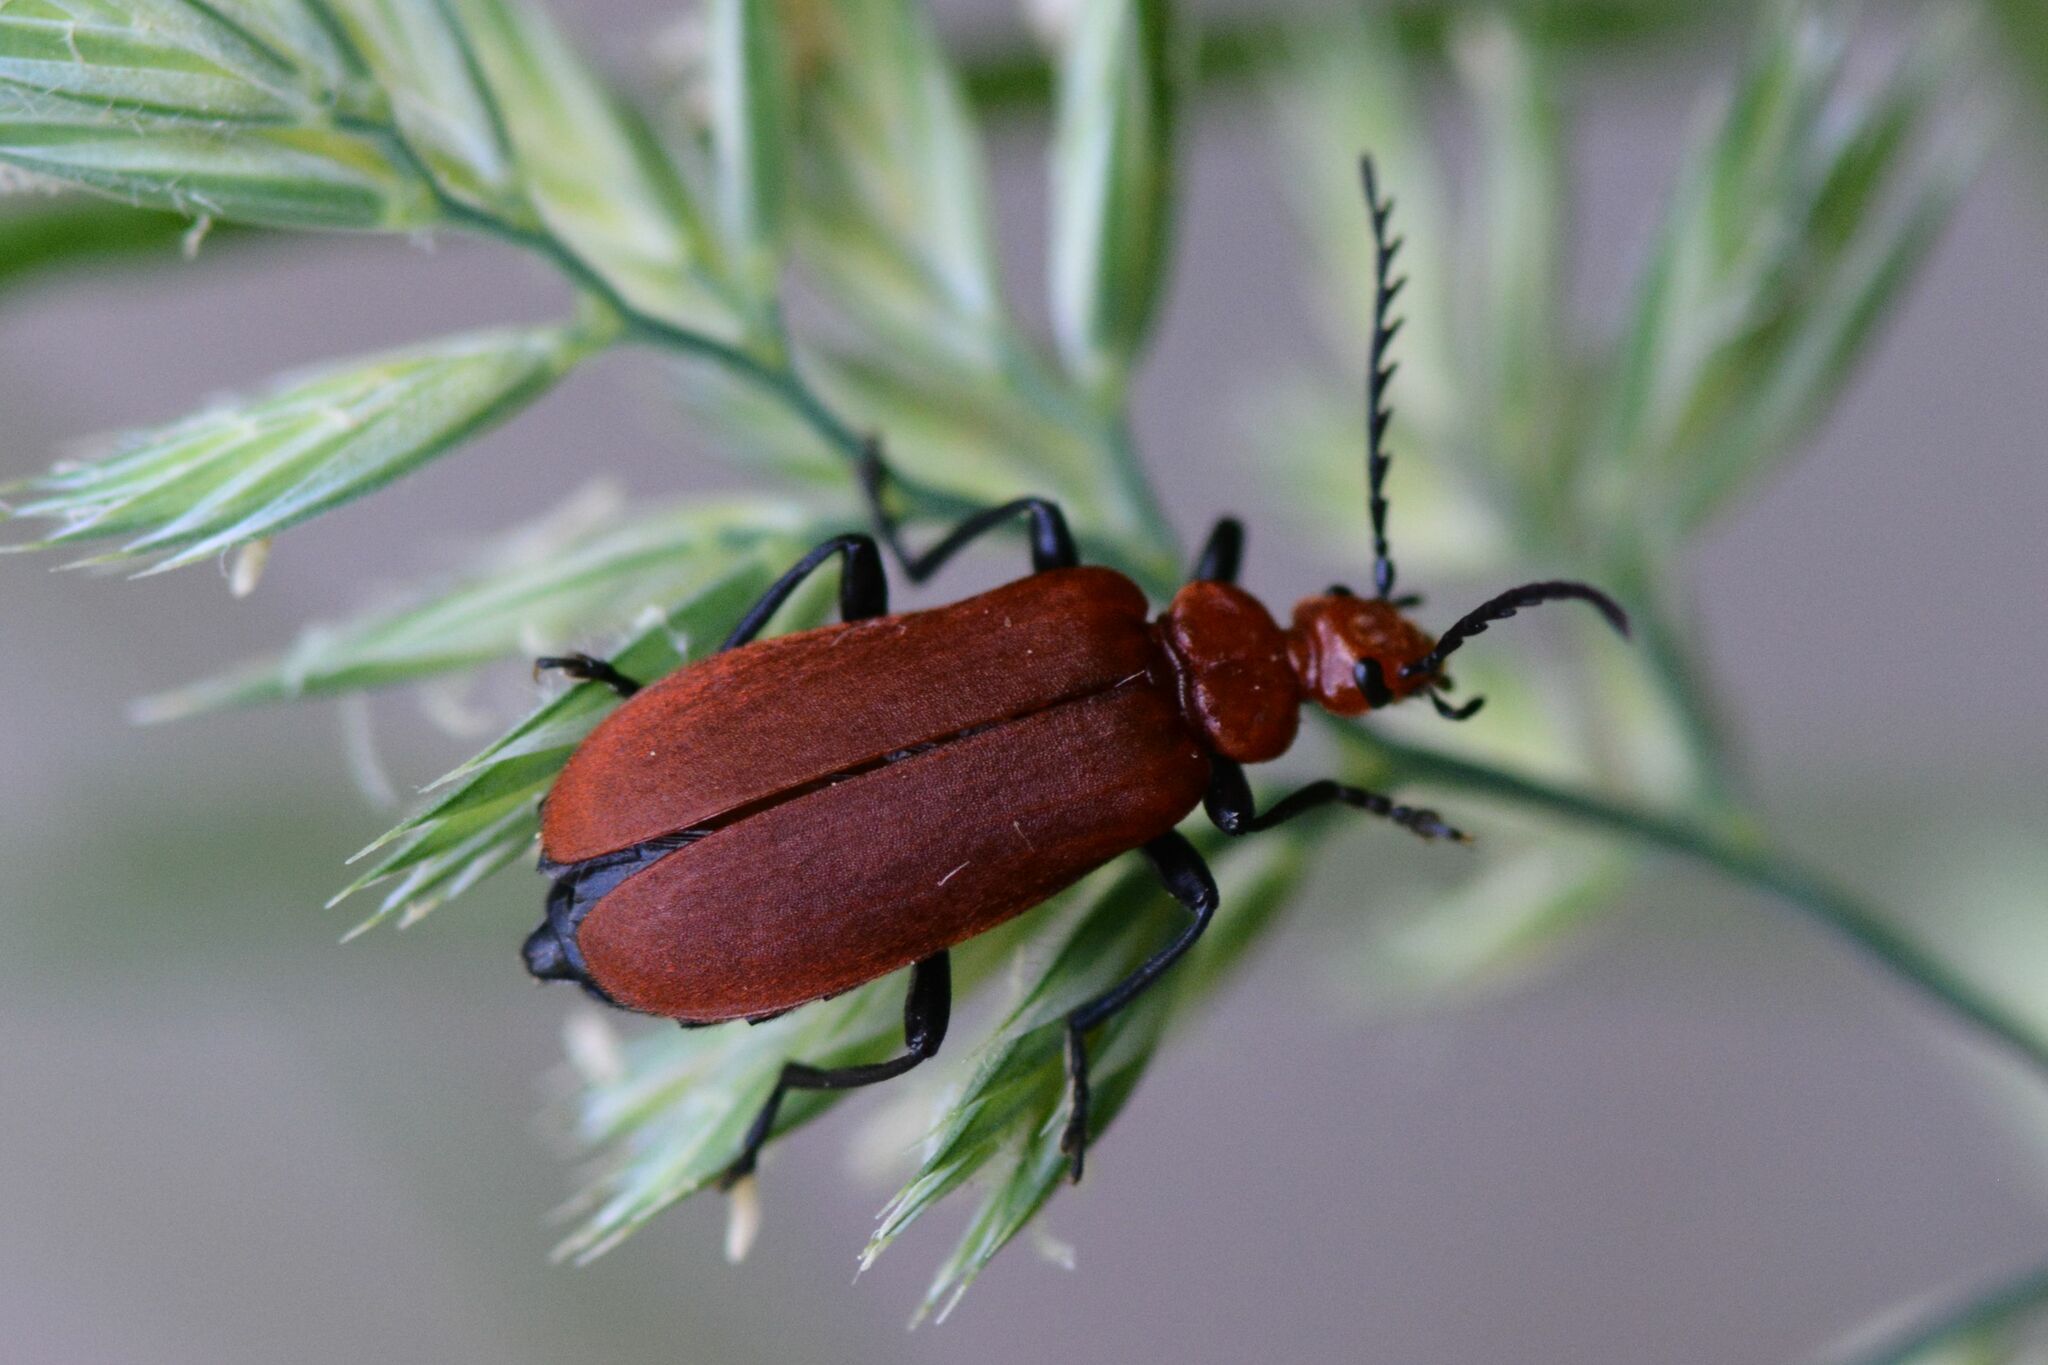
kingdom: Animalia
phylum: Arthropoda
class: Insecta
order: Coleoptera
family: Pyrochroidae
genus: Pyrochroa
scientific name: Pyrochroa serraticornis
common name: Red-headed cardinal beetle
